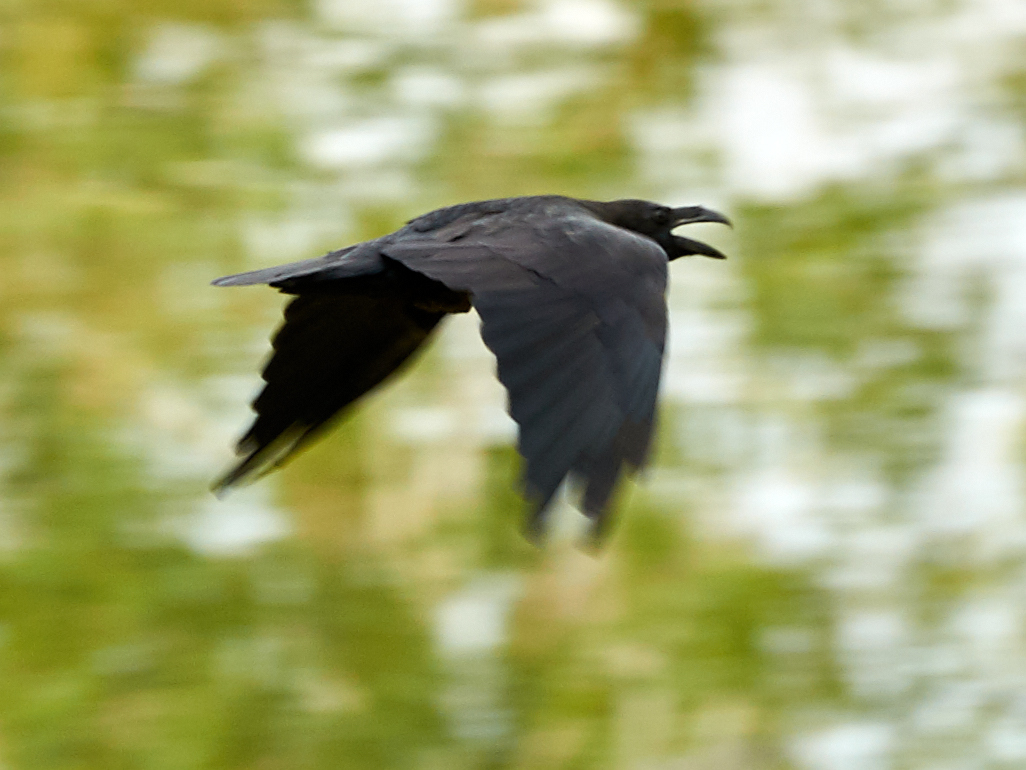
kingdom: Animalia
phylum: Chordata
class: Aves
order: Passeriformes
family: Corvidae
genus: Corvus
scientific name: Corvus corax
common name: Common raven
